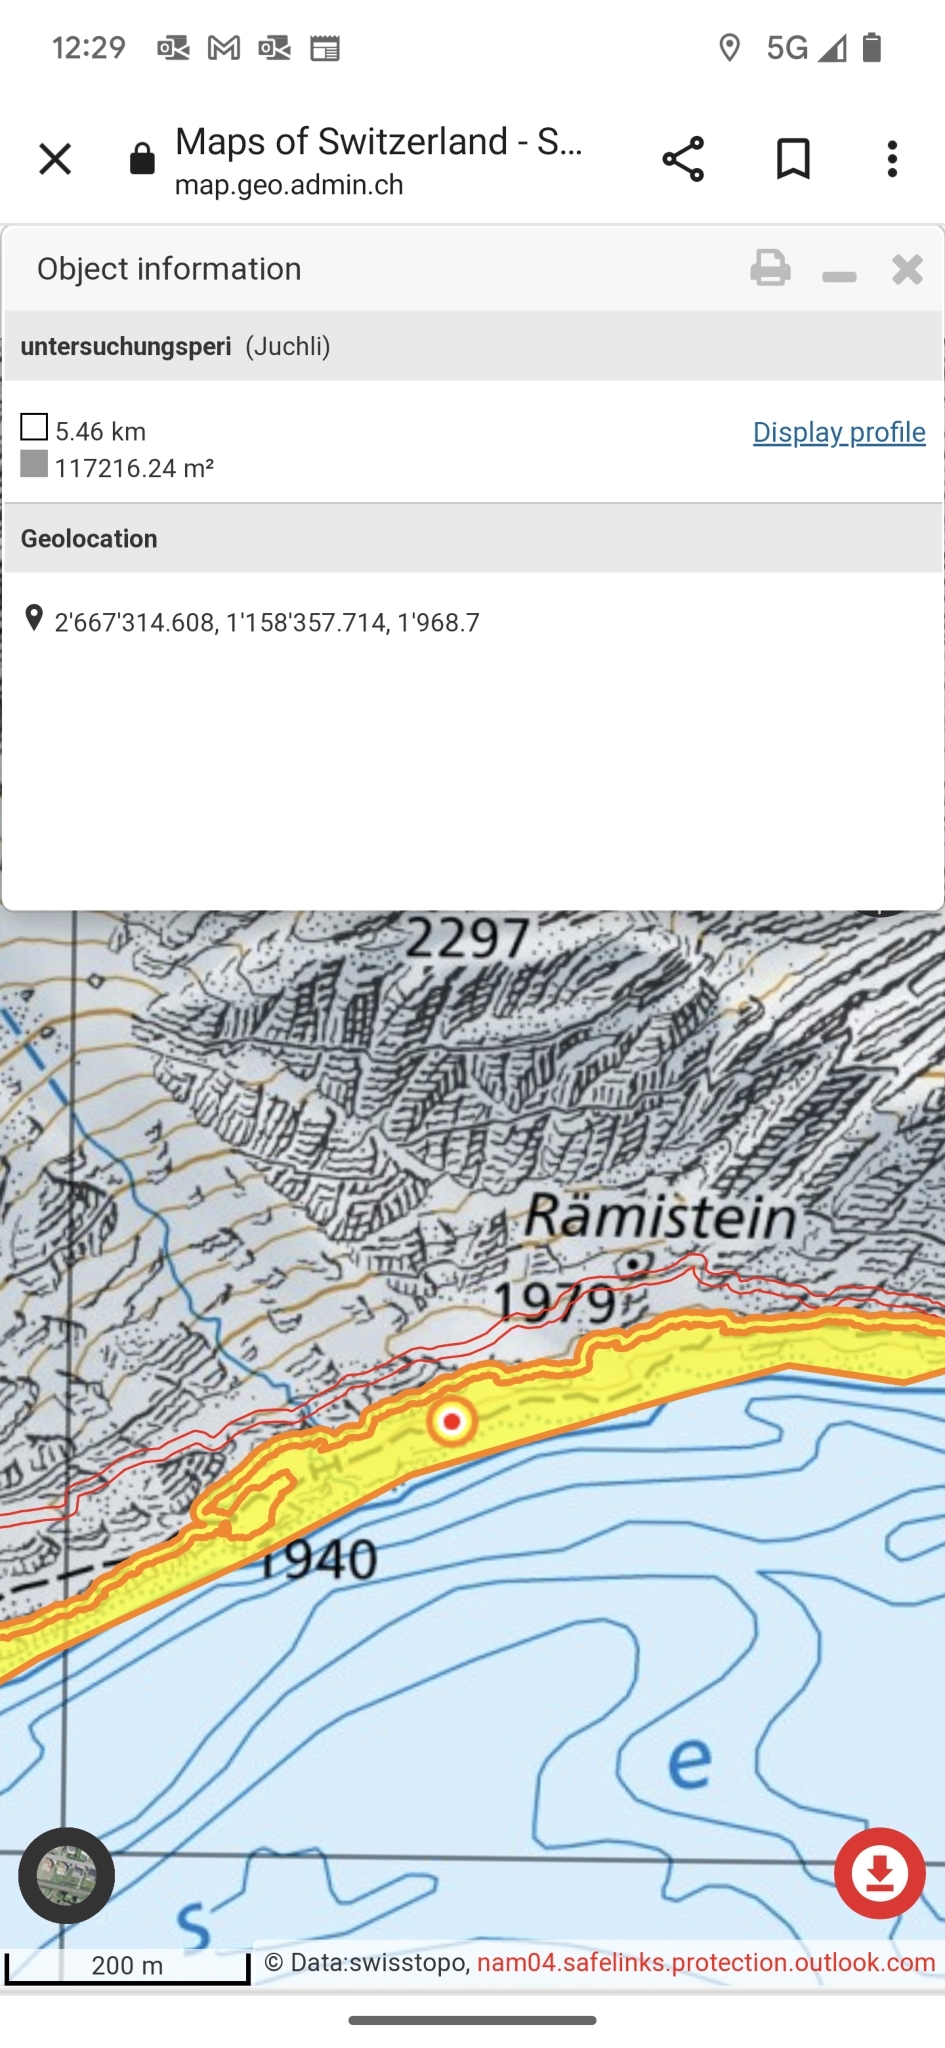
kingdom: Animalia
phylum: Chordata
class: Amphibia
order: Anura
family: Ranidae
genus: Rana
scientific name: Rana temporaria
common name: Common frog
